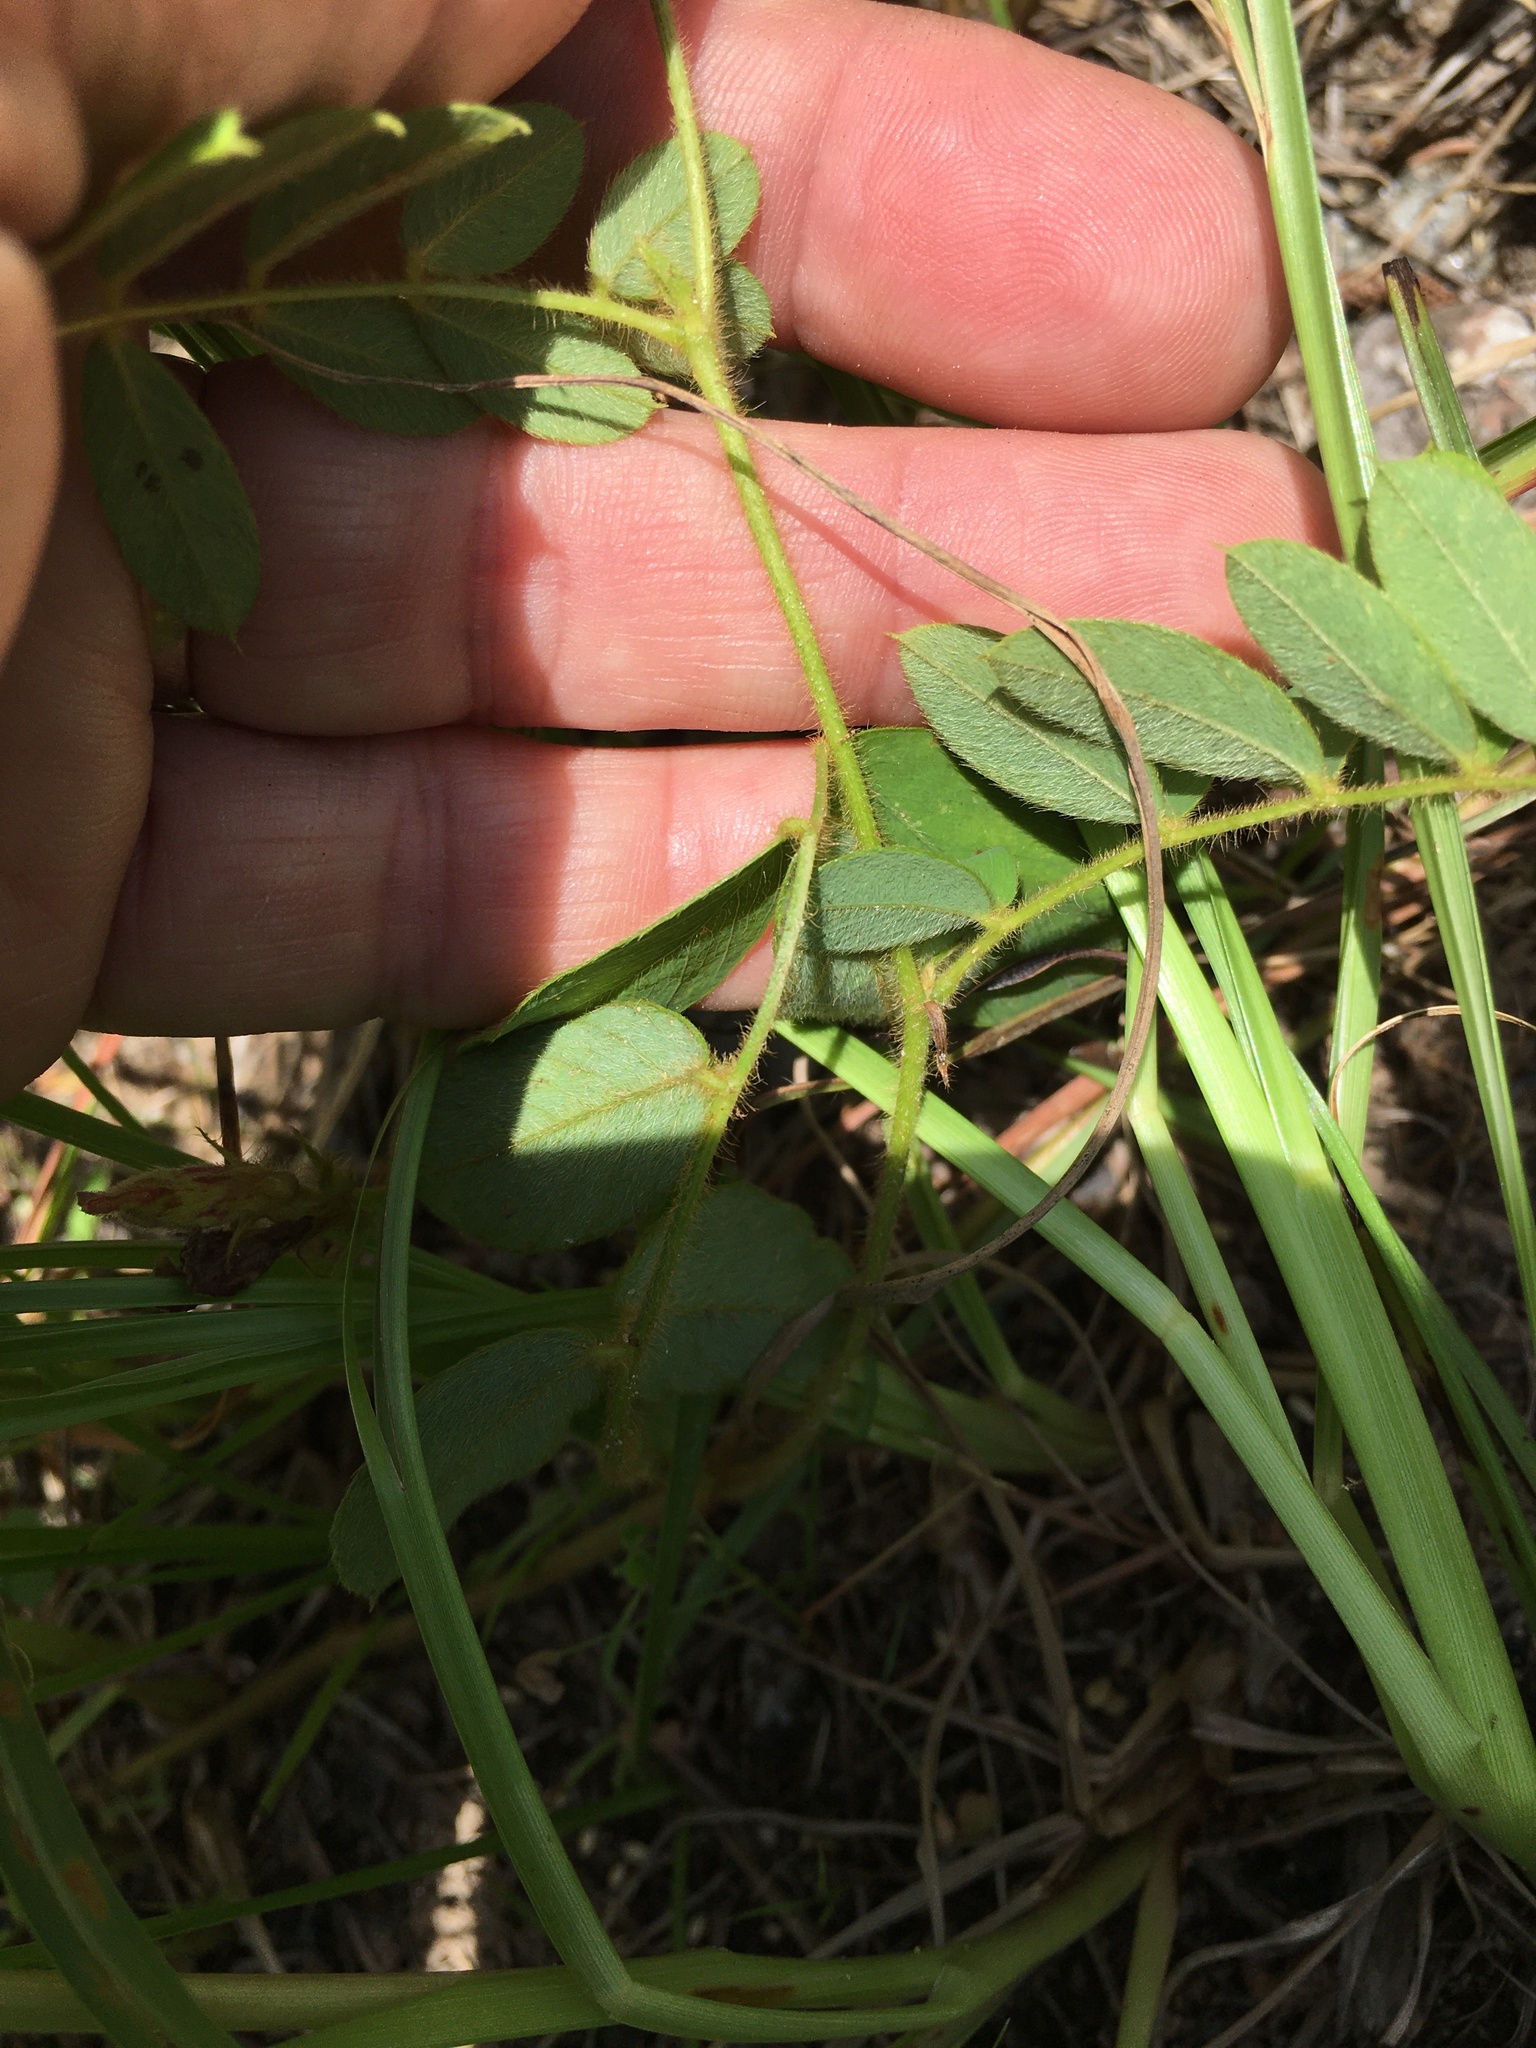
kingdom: Plantae
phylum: Tracheophyta
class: Magnoliopsida
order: Fabales
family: Fabaceae
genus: Tephrosia
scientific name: Tephrosia spicata
